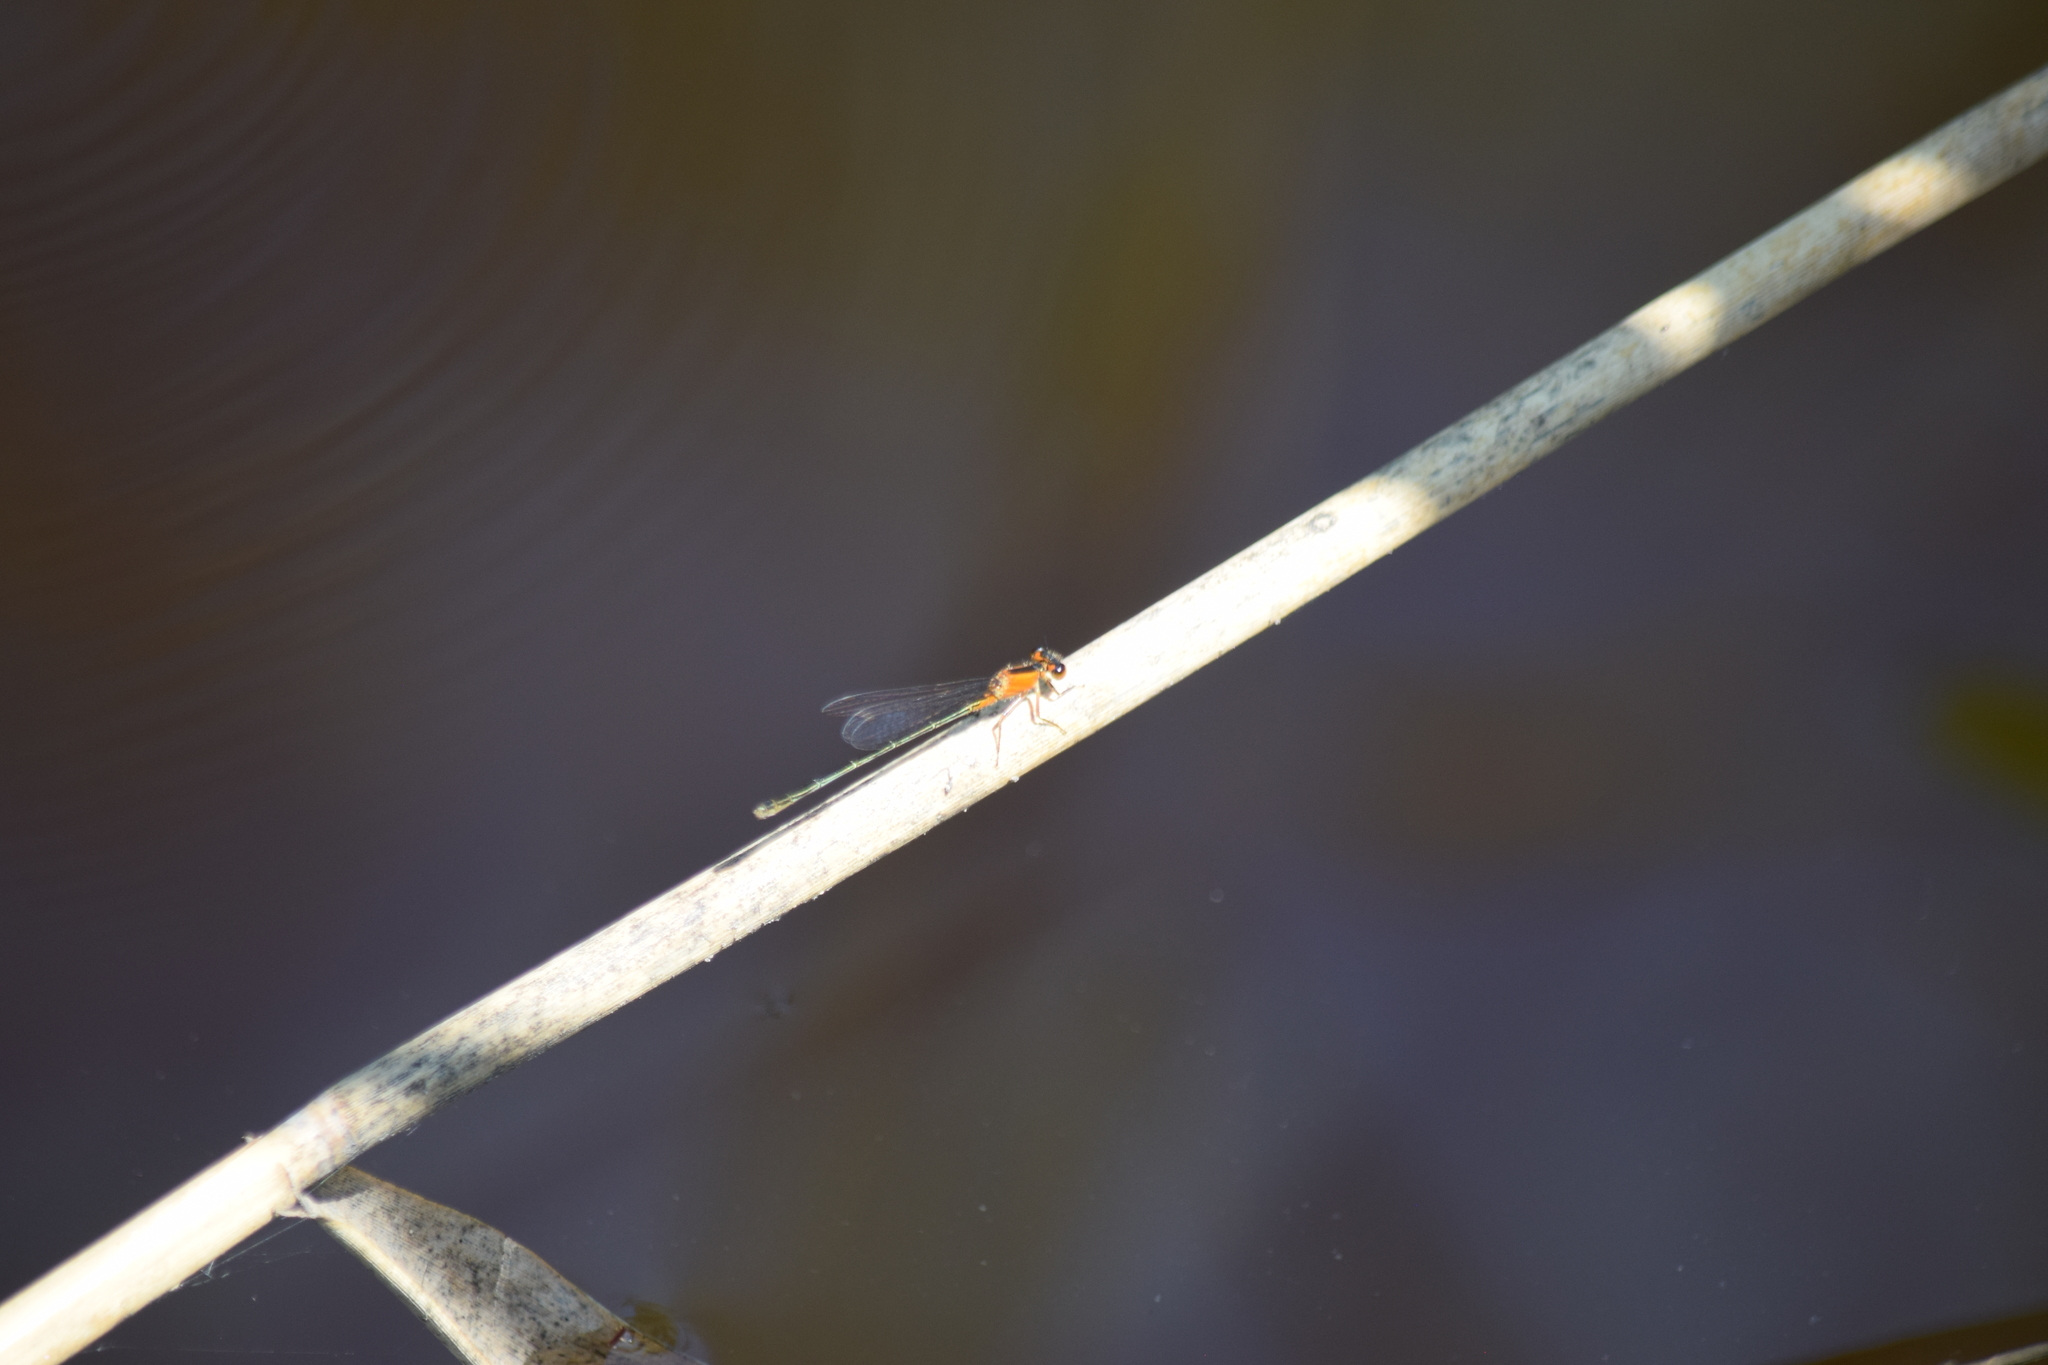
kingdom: Animalia
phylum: Arthropoda
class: Insecta
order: Odonata
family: Coenagrionidae
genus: Ischnura
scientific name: Ischnura ramburii
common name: Rambur's forktail
